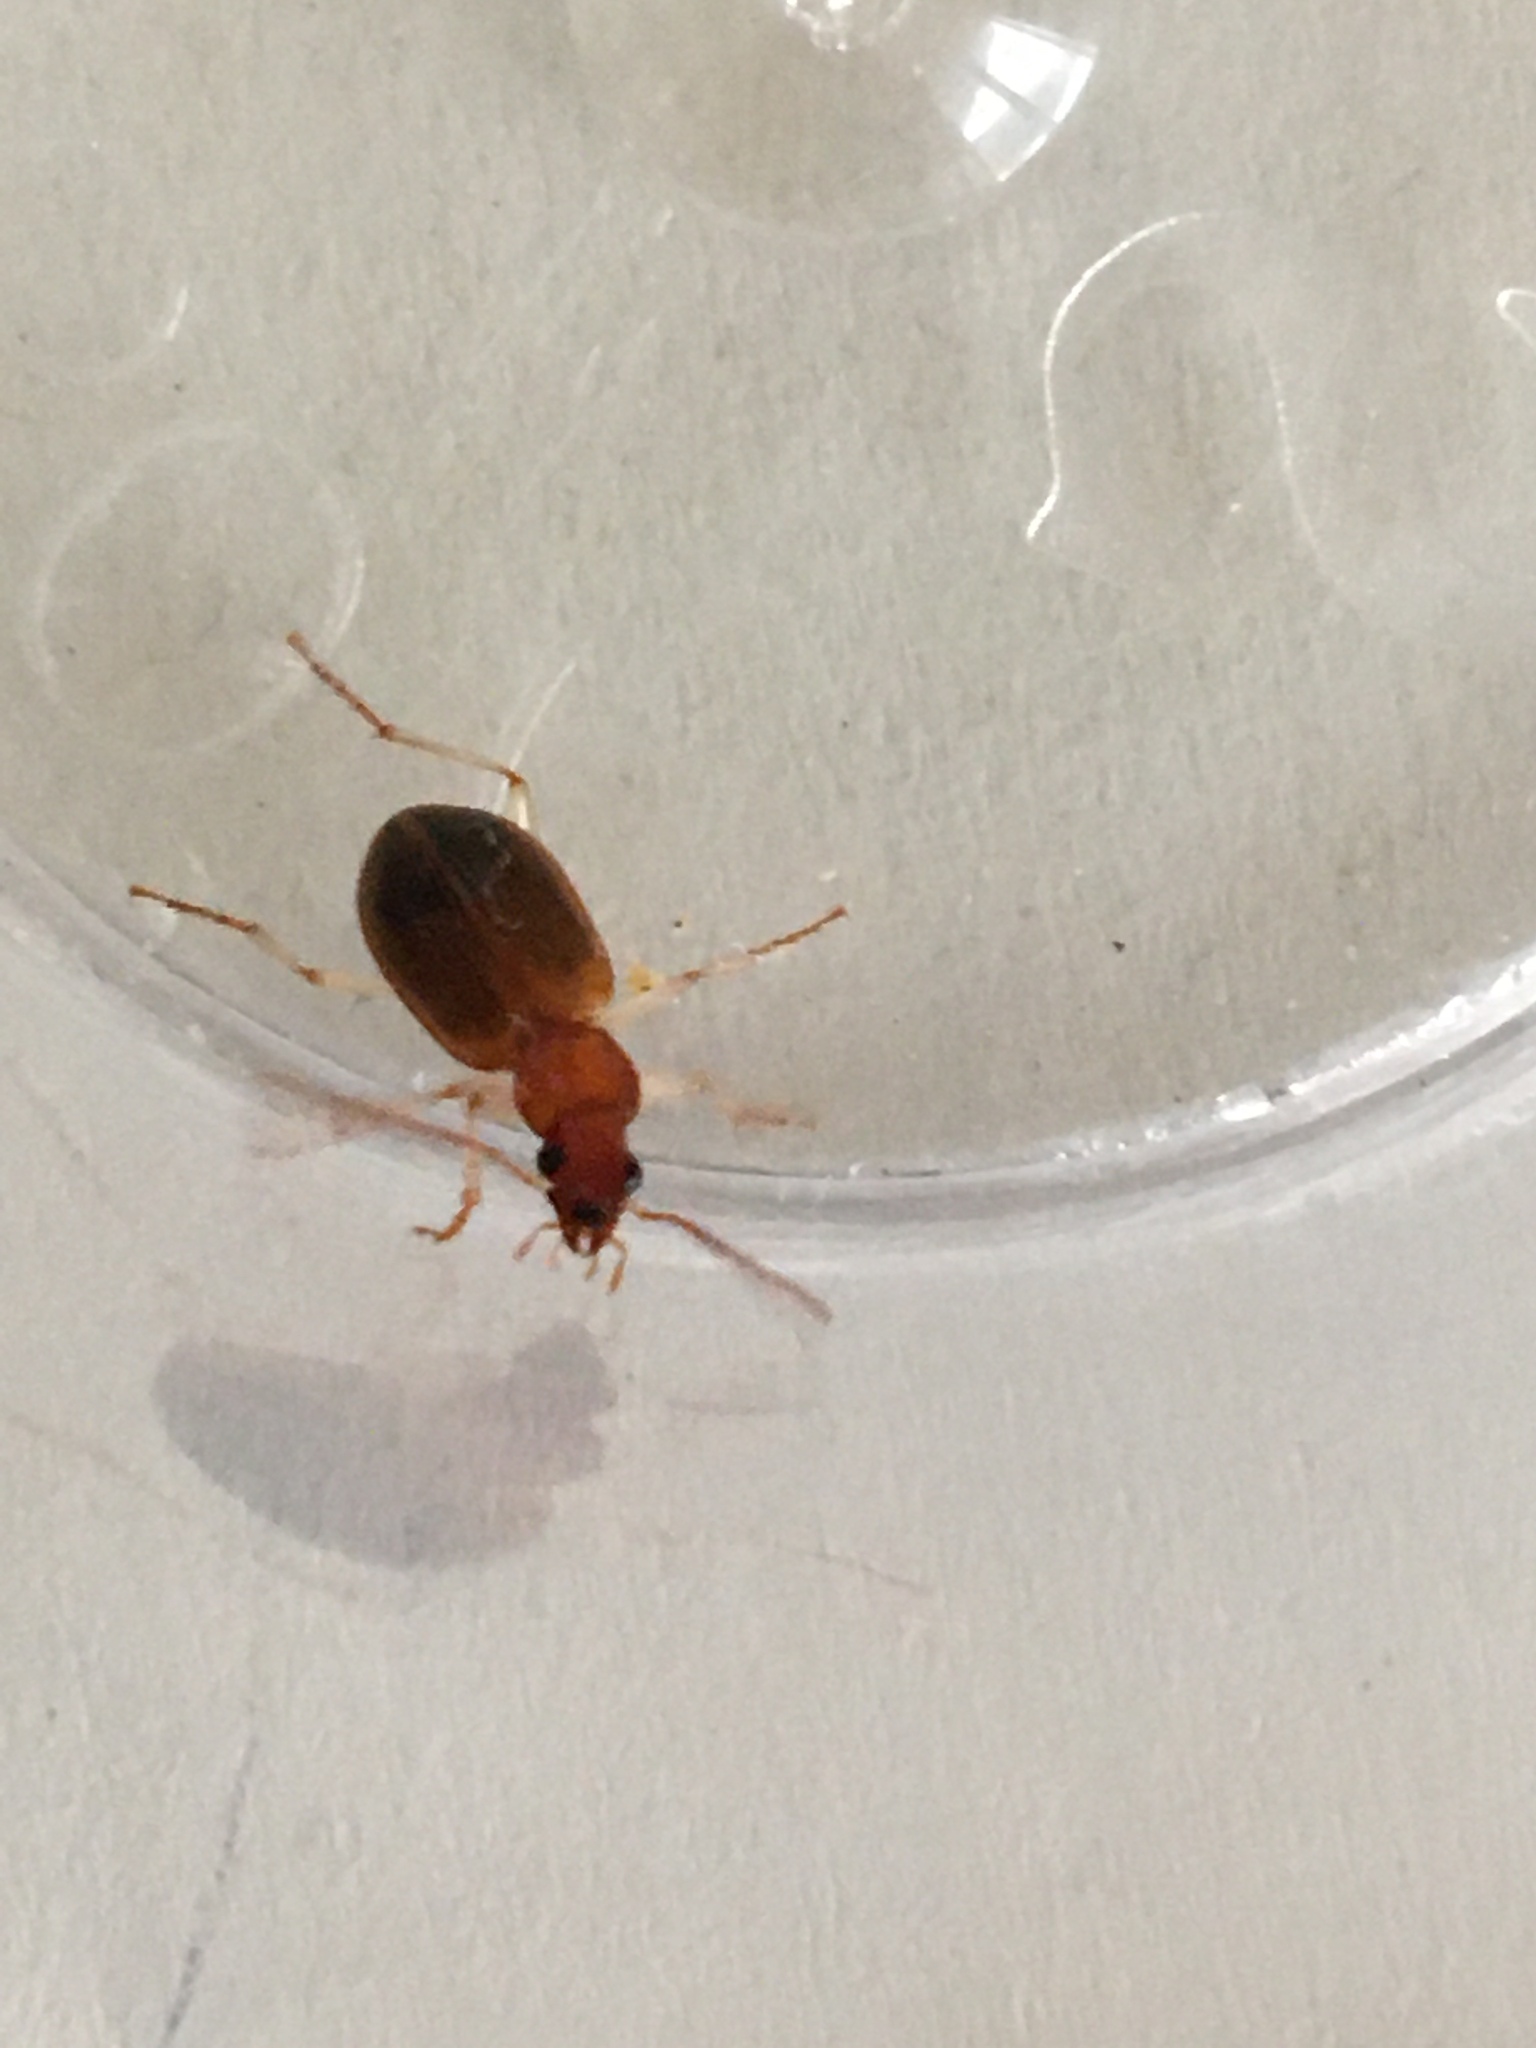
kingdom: Animalia
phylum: Arthropoda
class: Insecta
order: Coleoptera
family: Carabidae
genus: Paranchus
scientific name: Paranchus albipes
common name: White-legged harp ground beetle
